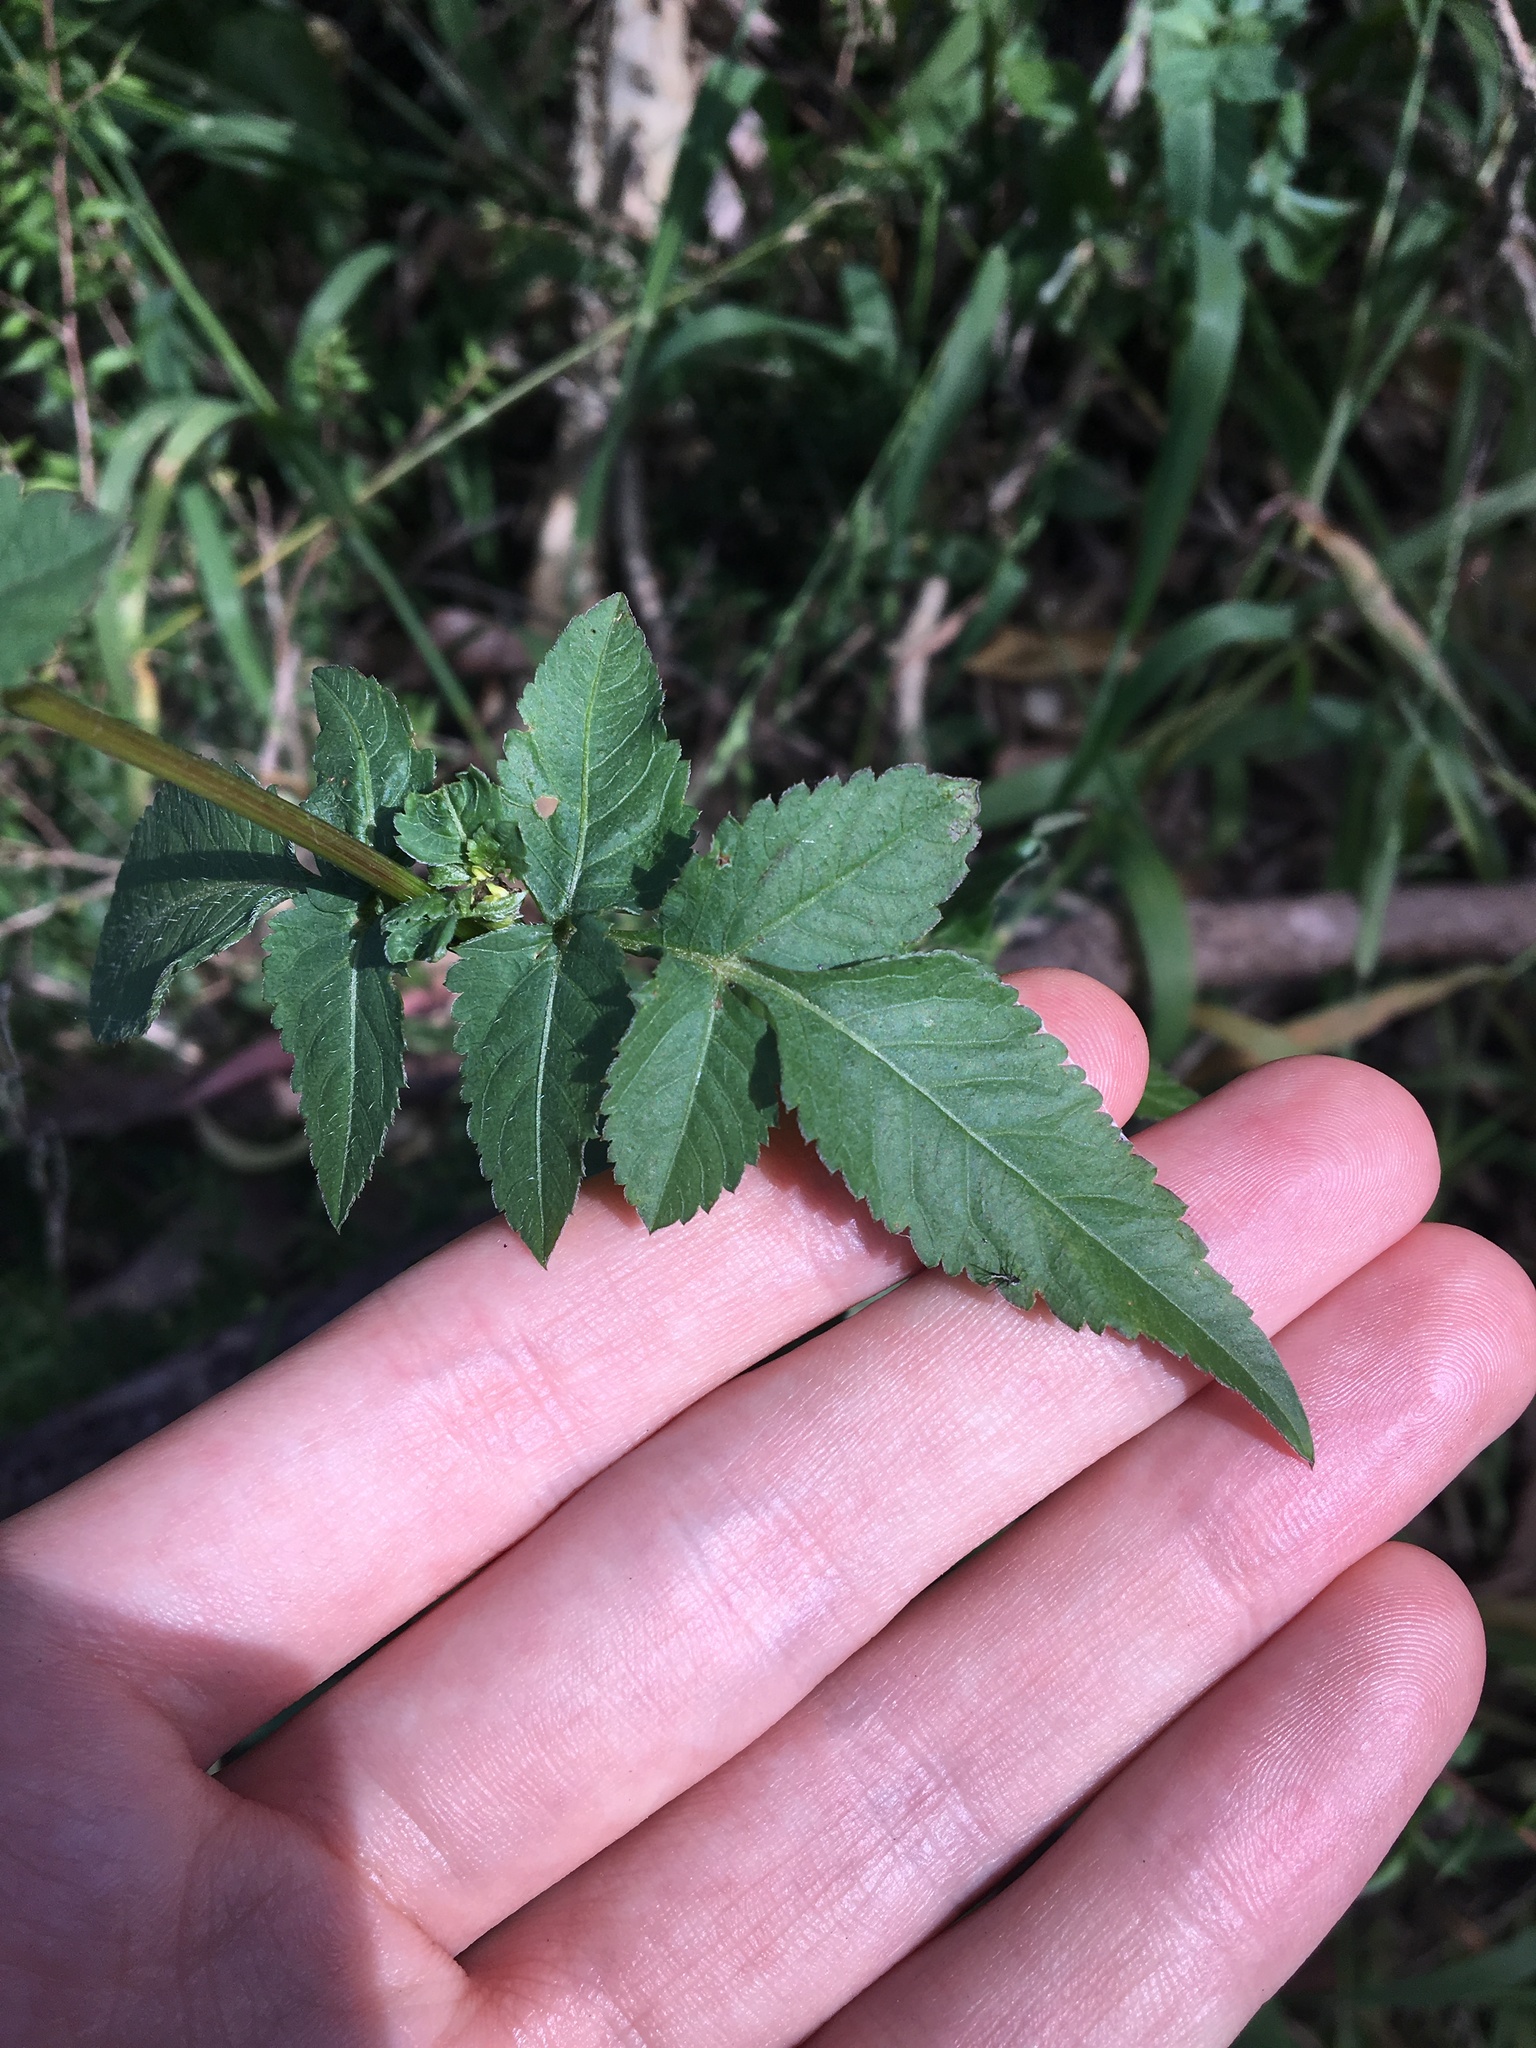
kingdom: Plantae
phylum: Tracheophyta
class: Magnoliopsida
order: Asterales
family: Asteraceae
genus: Bidens
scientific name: Bidens pilosa
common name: Black-jack
